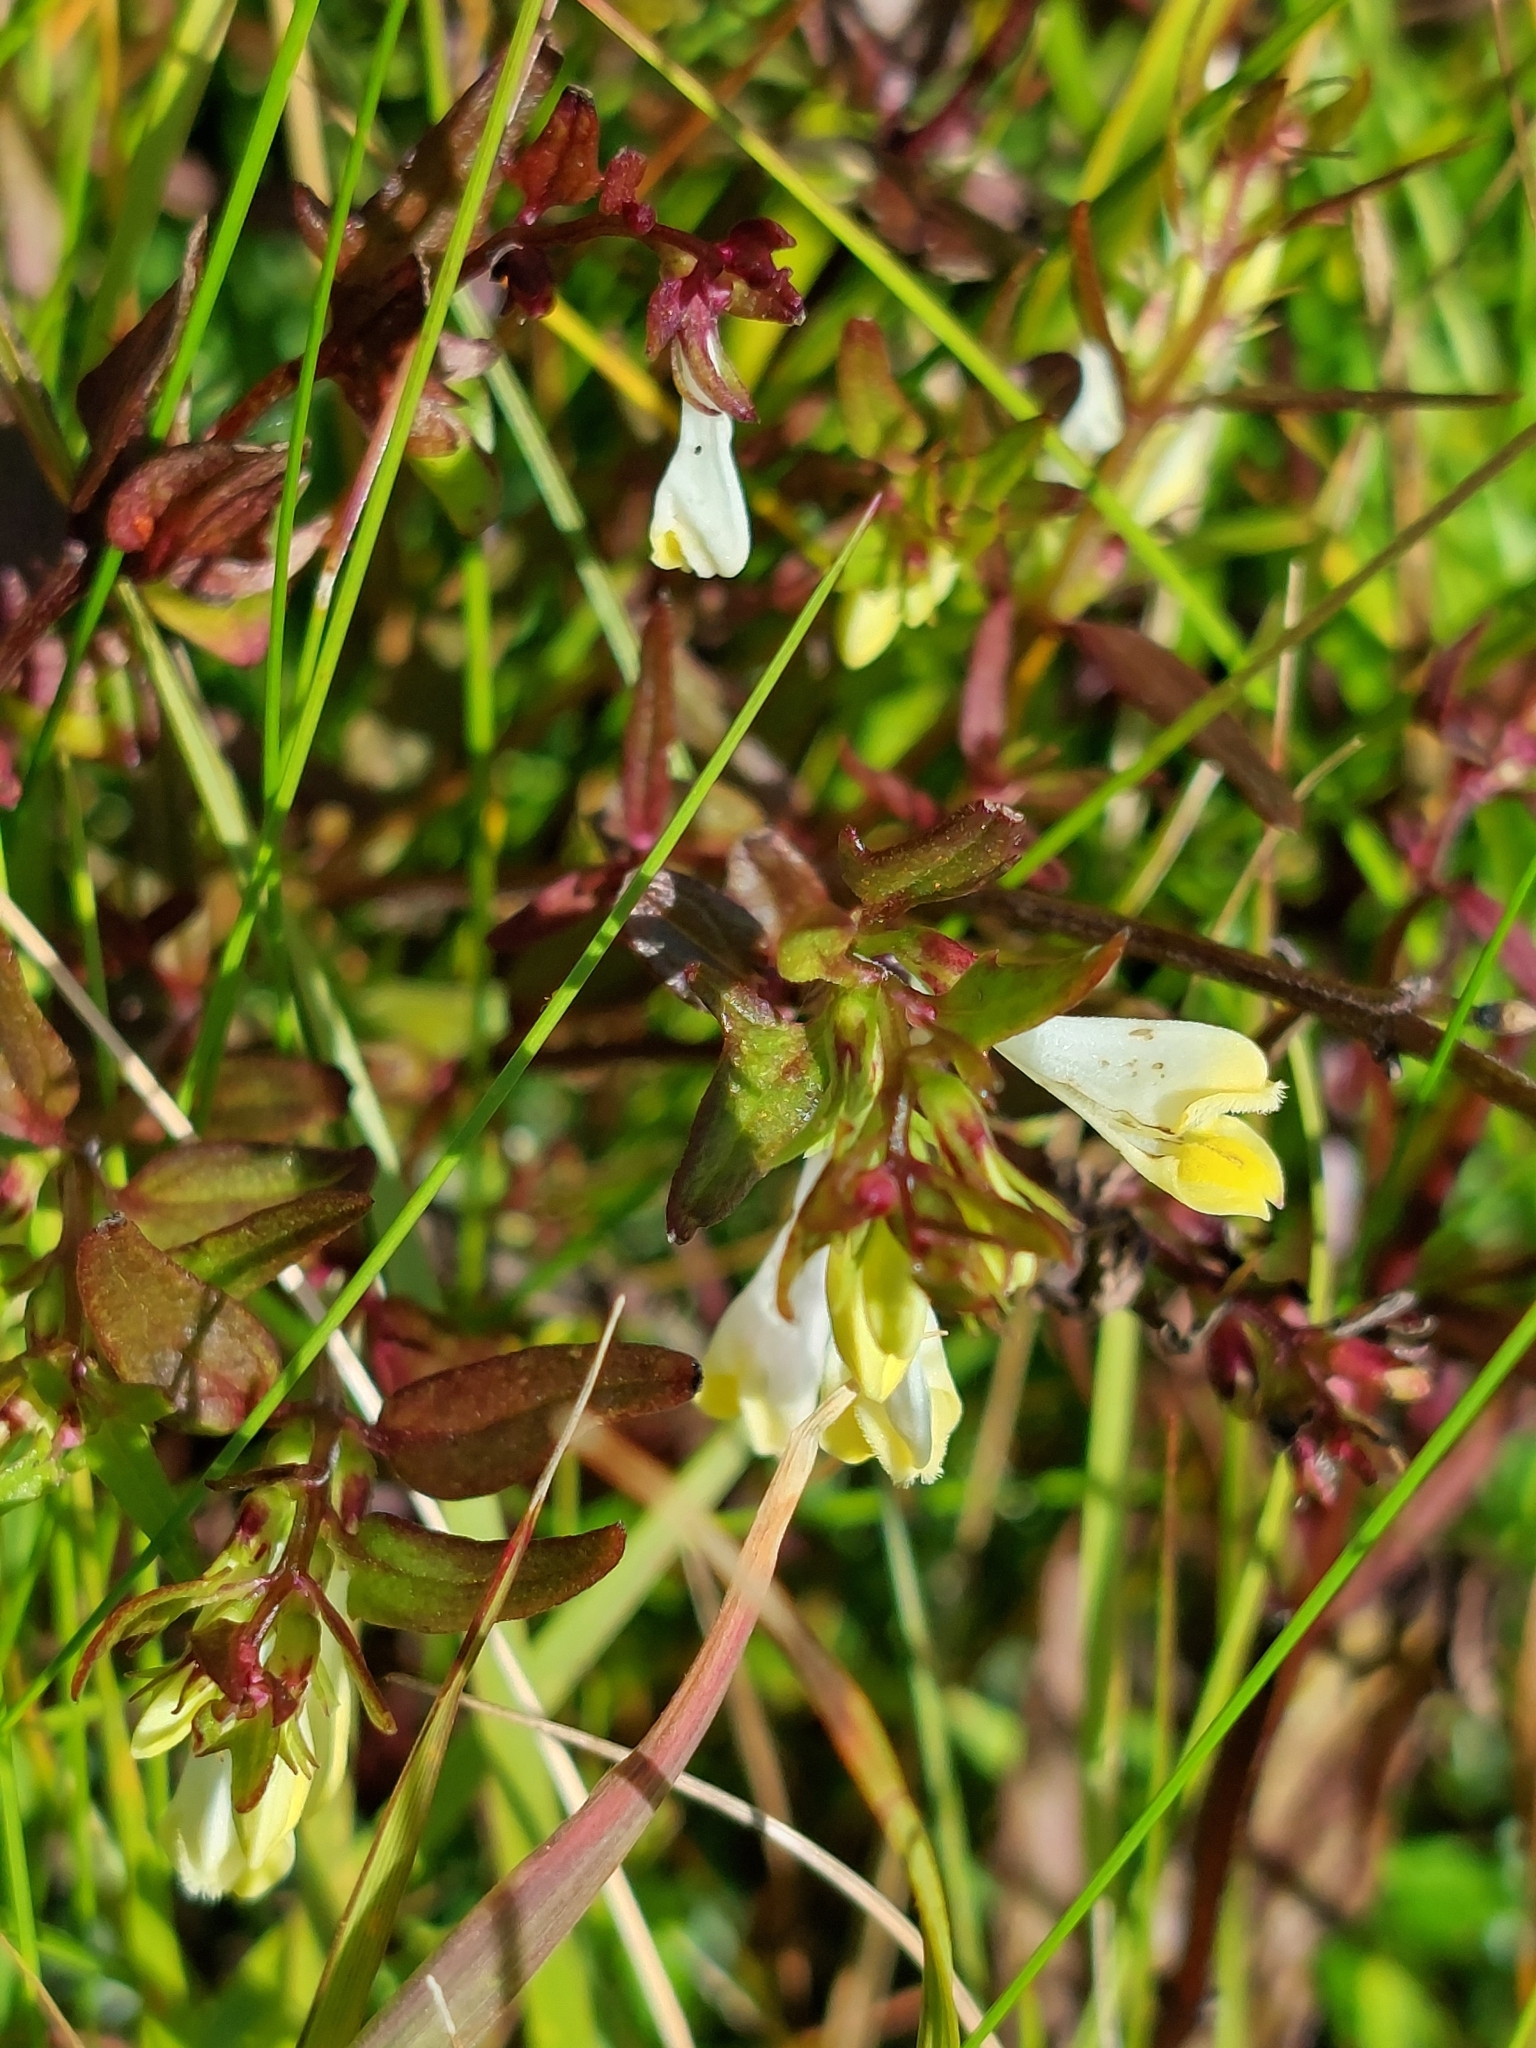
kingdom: Plantae
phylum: Tracheophyta
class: Magnoliopsida
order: Lamiales
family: Orobanchaceae
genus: Melampyrum
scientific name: Melampyrum pratense
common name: Common cow-wheat
